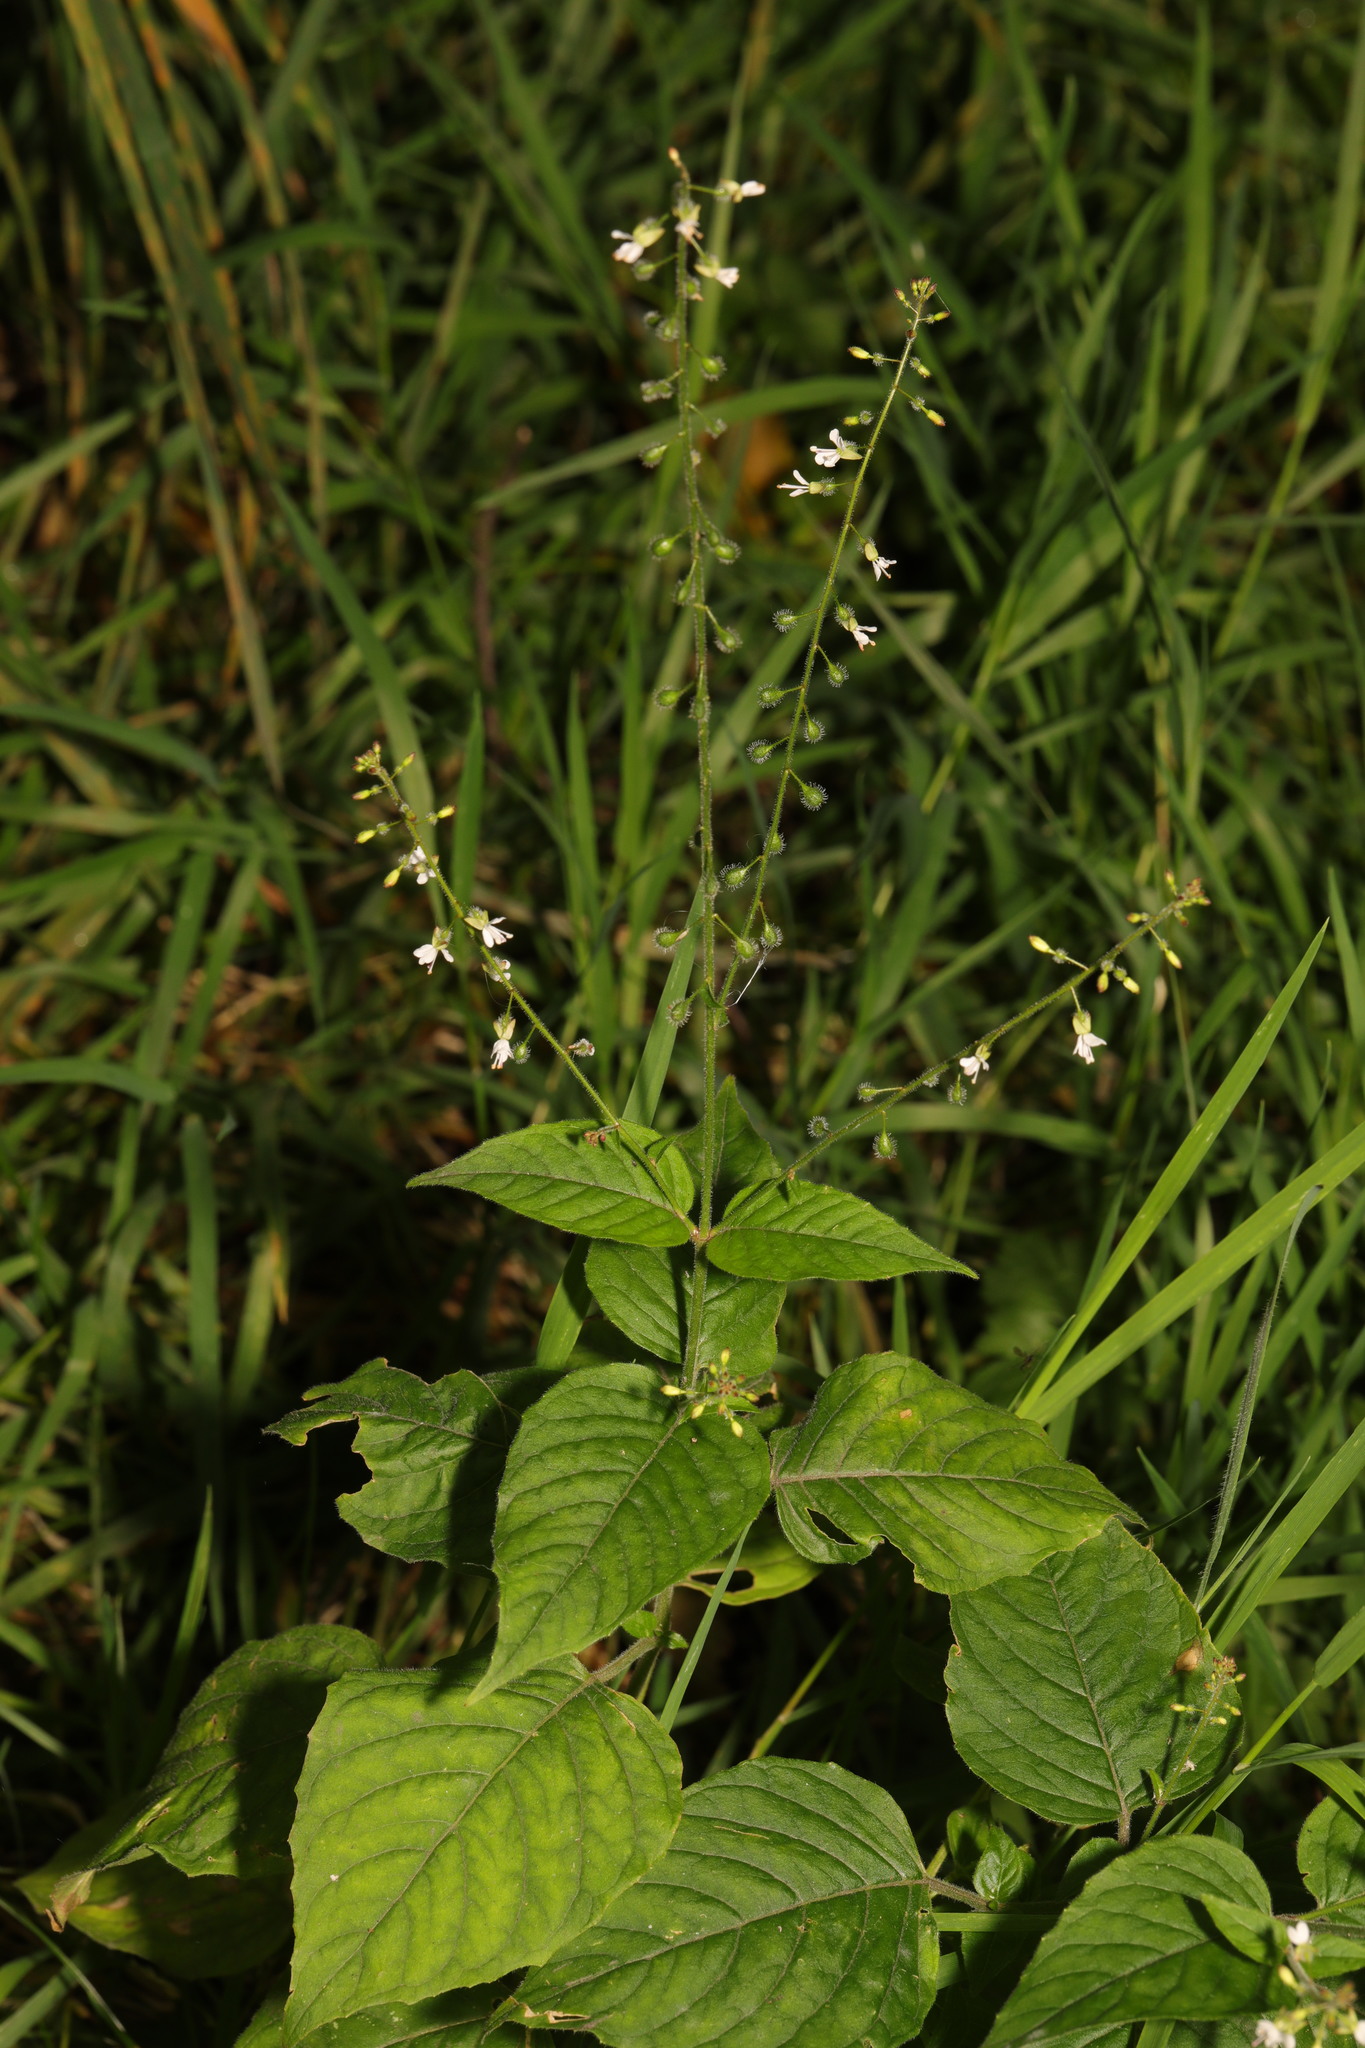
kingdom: Plantae
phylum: Tracheophyta
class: Magnoliopsida
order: Myrtales
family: Onagraceae
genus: Circaea
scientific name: Circaea lutetiana
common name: Enchanter's-nightshade
